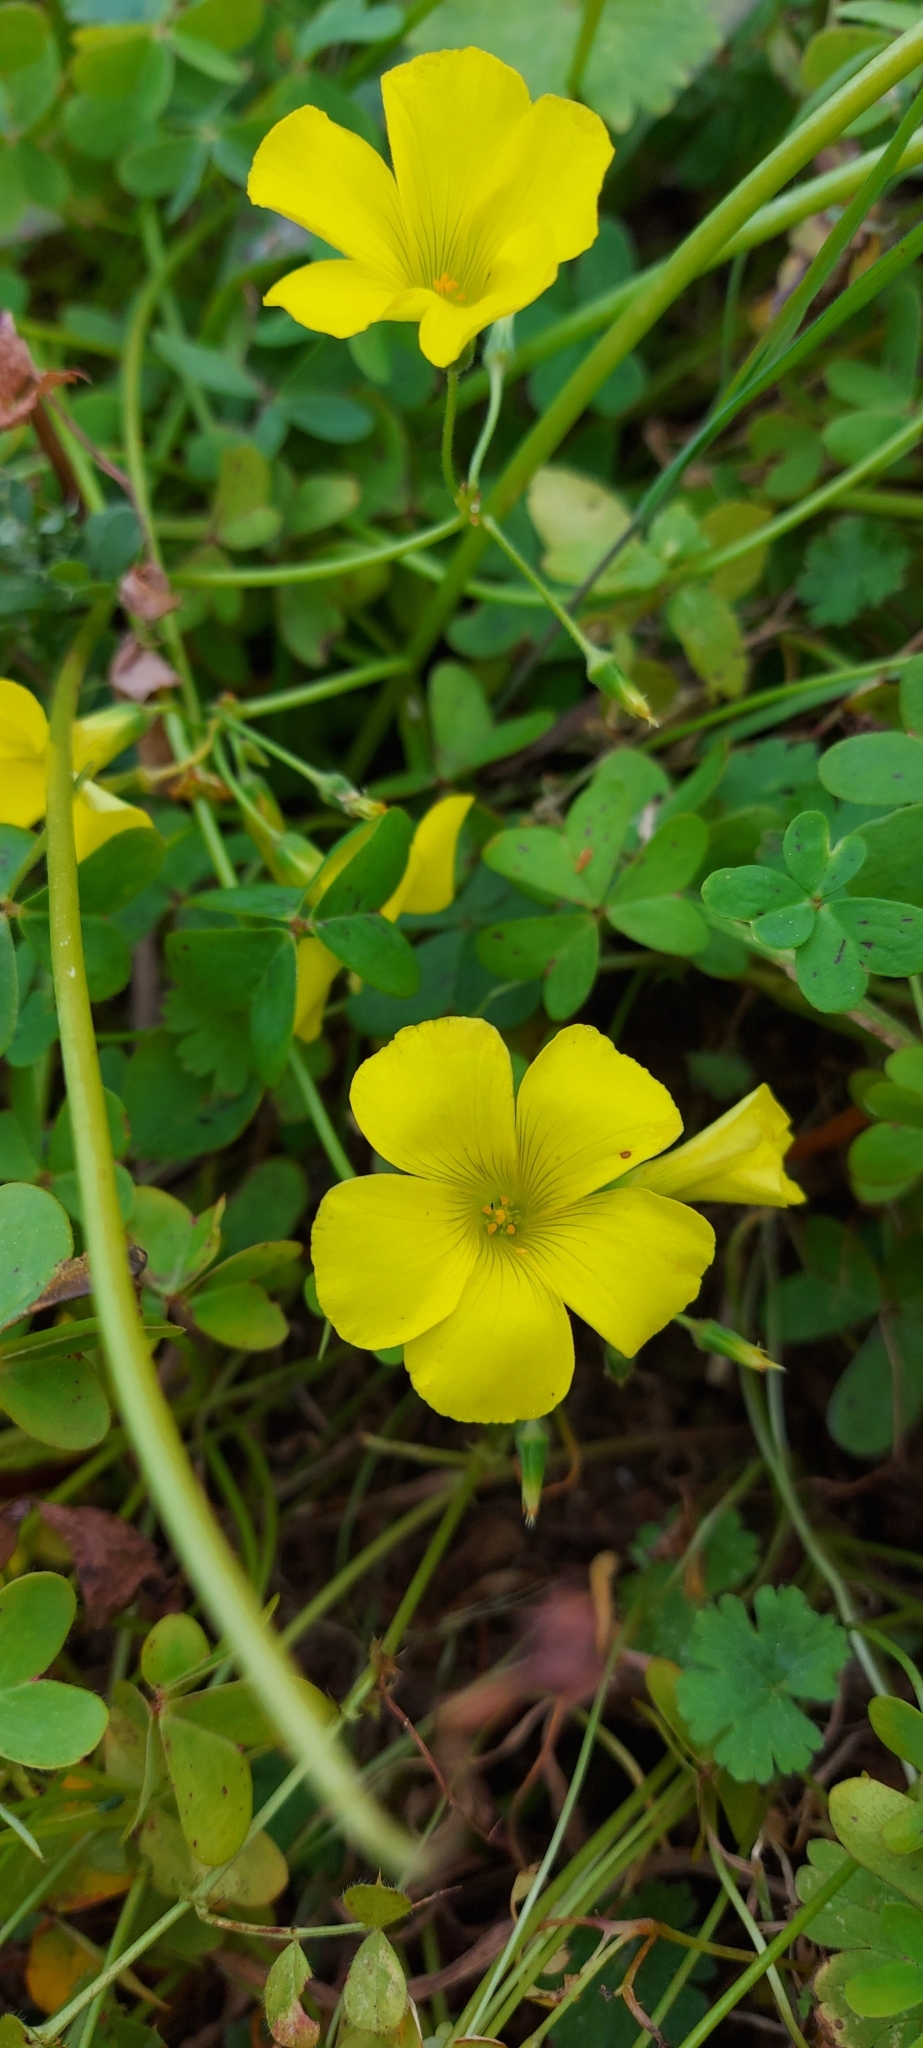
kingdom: Plantae
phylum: Tracheophyta
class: Magnoliopsida
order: Oxalidales
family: Oxalidaceae
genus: Oxalis
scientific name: Oxalis pes-caprae
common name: Bermuda-buttercup
